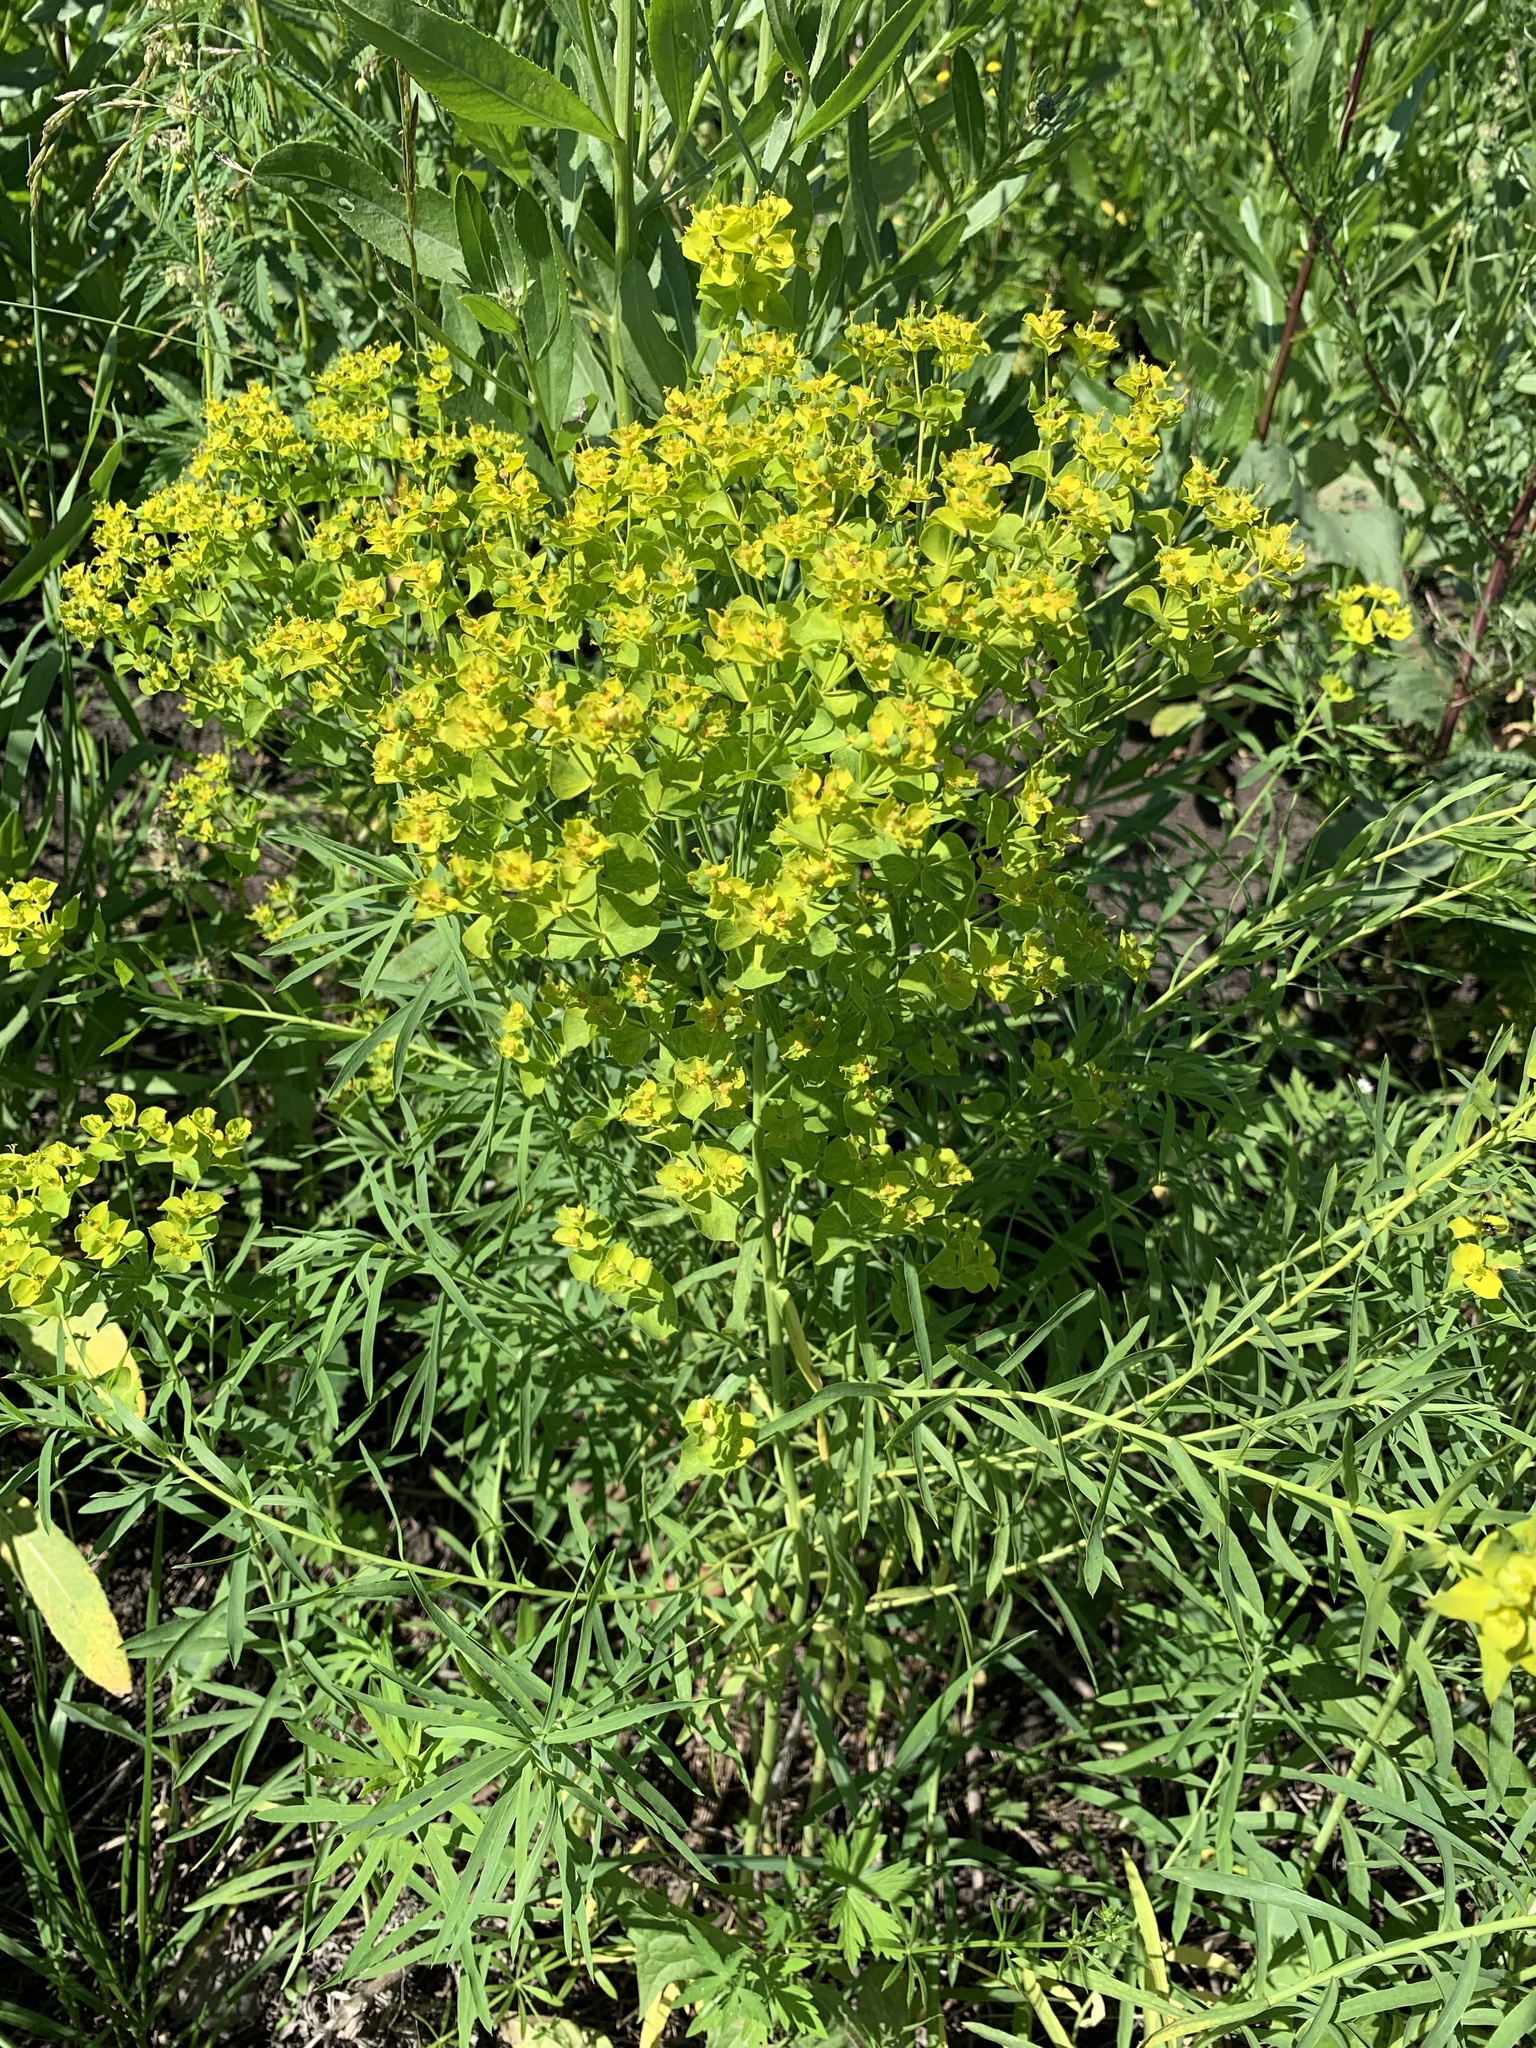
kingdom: Plantae
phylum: Tracheophyta
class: Magnoliopsida
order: Malpighiales
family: Euphorbiaceae
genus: Euphorbia
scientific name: Euphorbia virgata
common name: Leafy spurge
